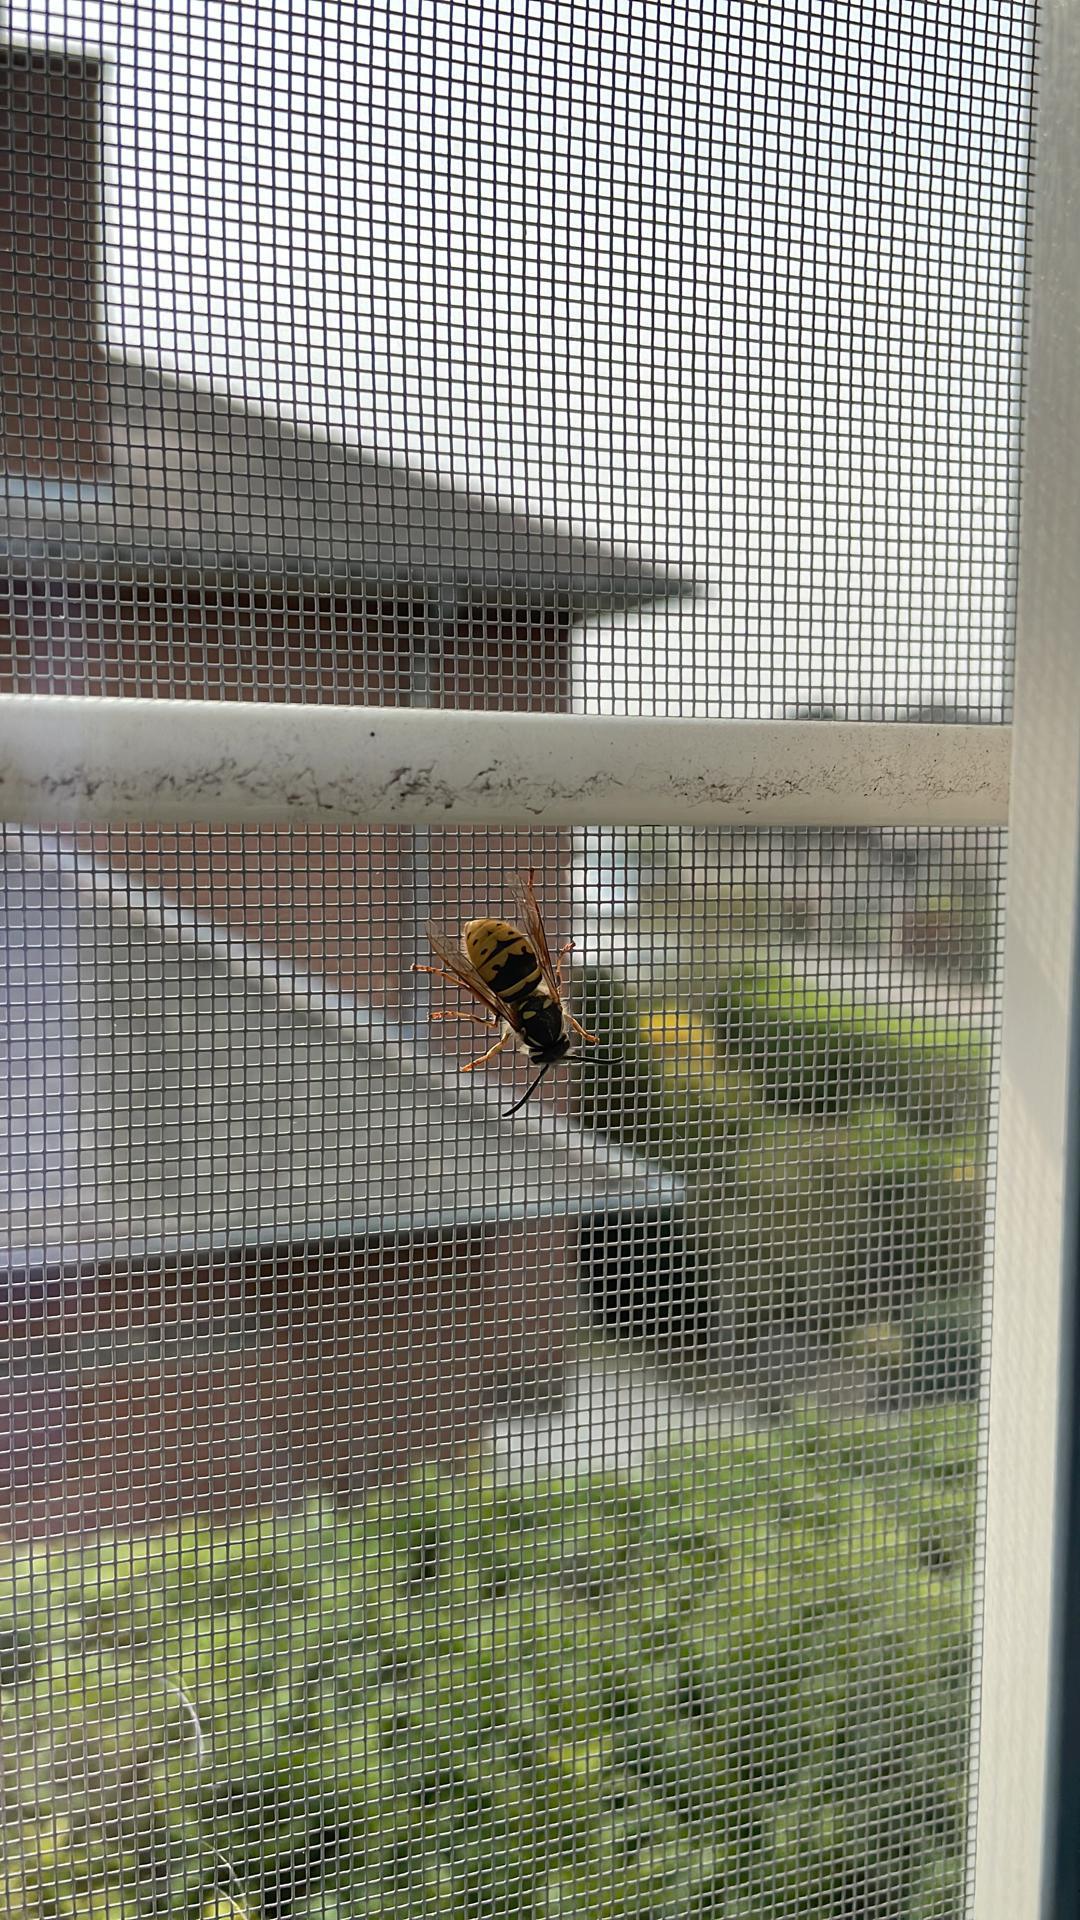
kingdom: Animalia
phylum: Arthropoda
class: Insecta
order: Hymenoptera
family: Vespidae
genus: Vespula
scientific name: Vespula vulgaris
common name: Common wasp
